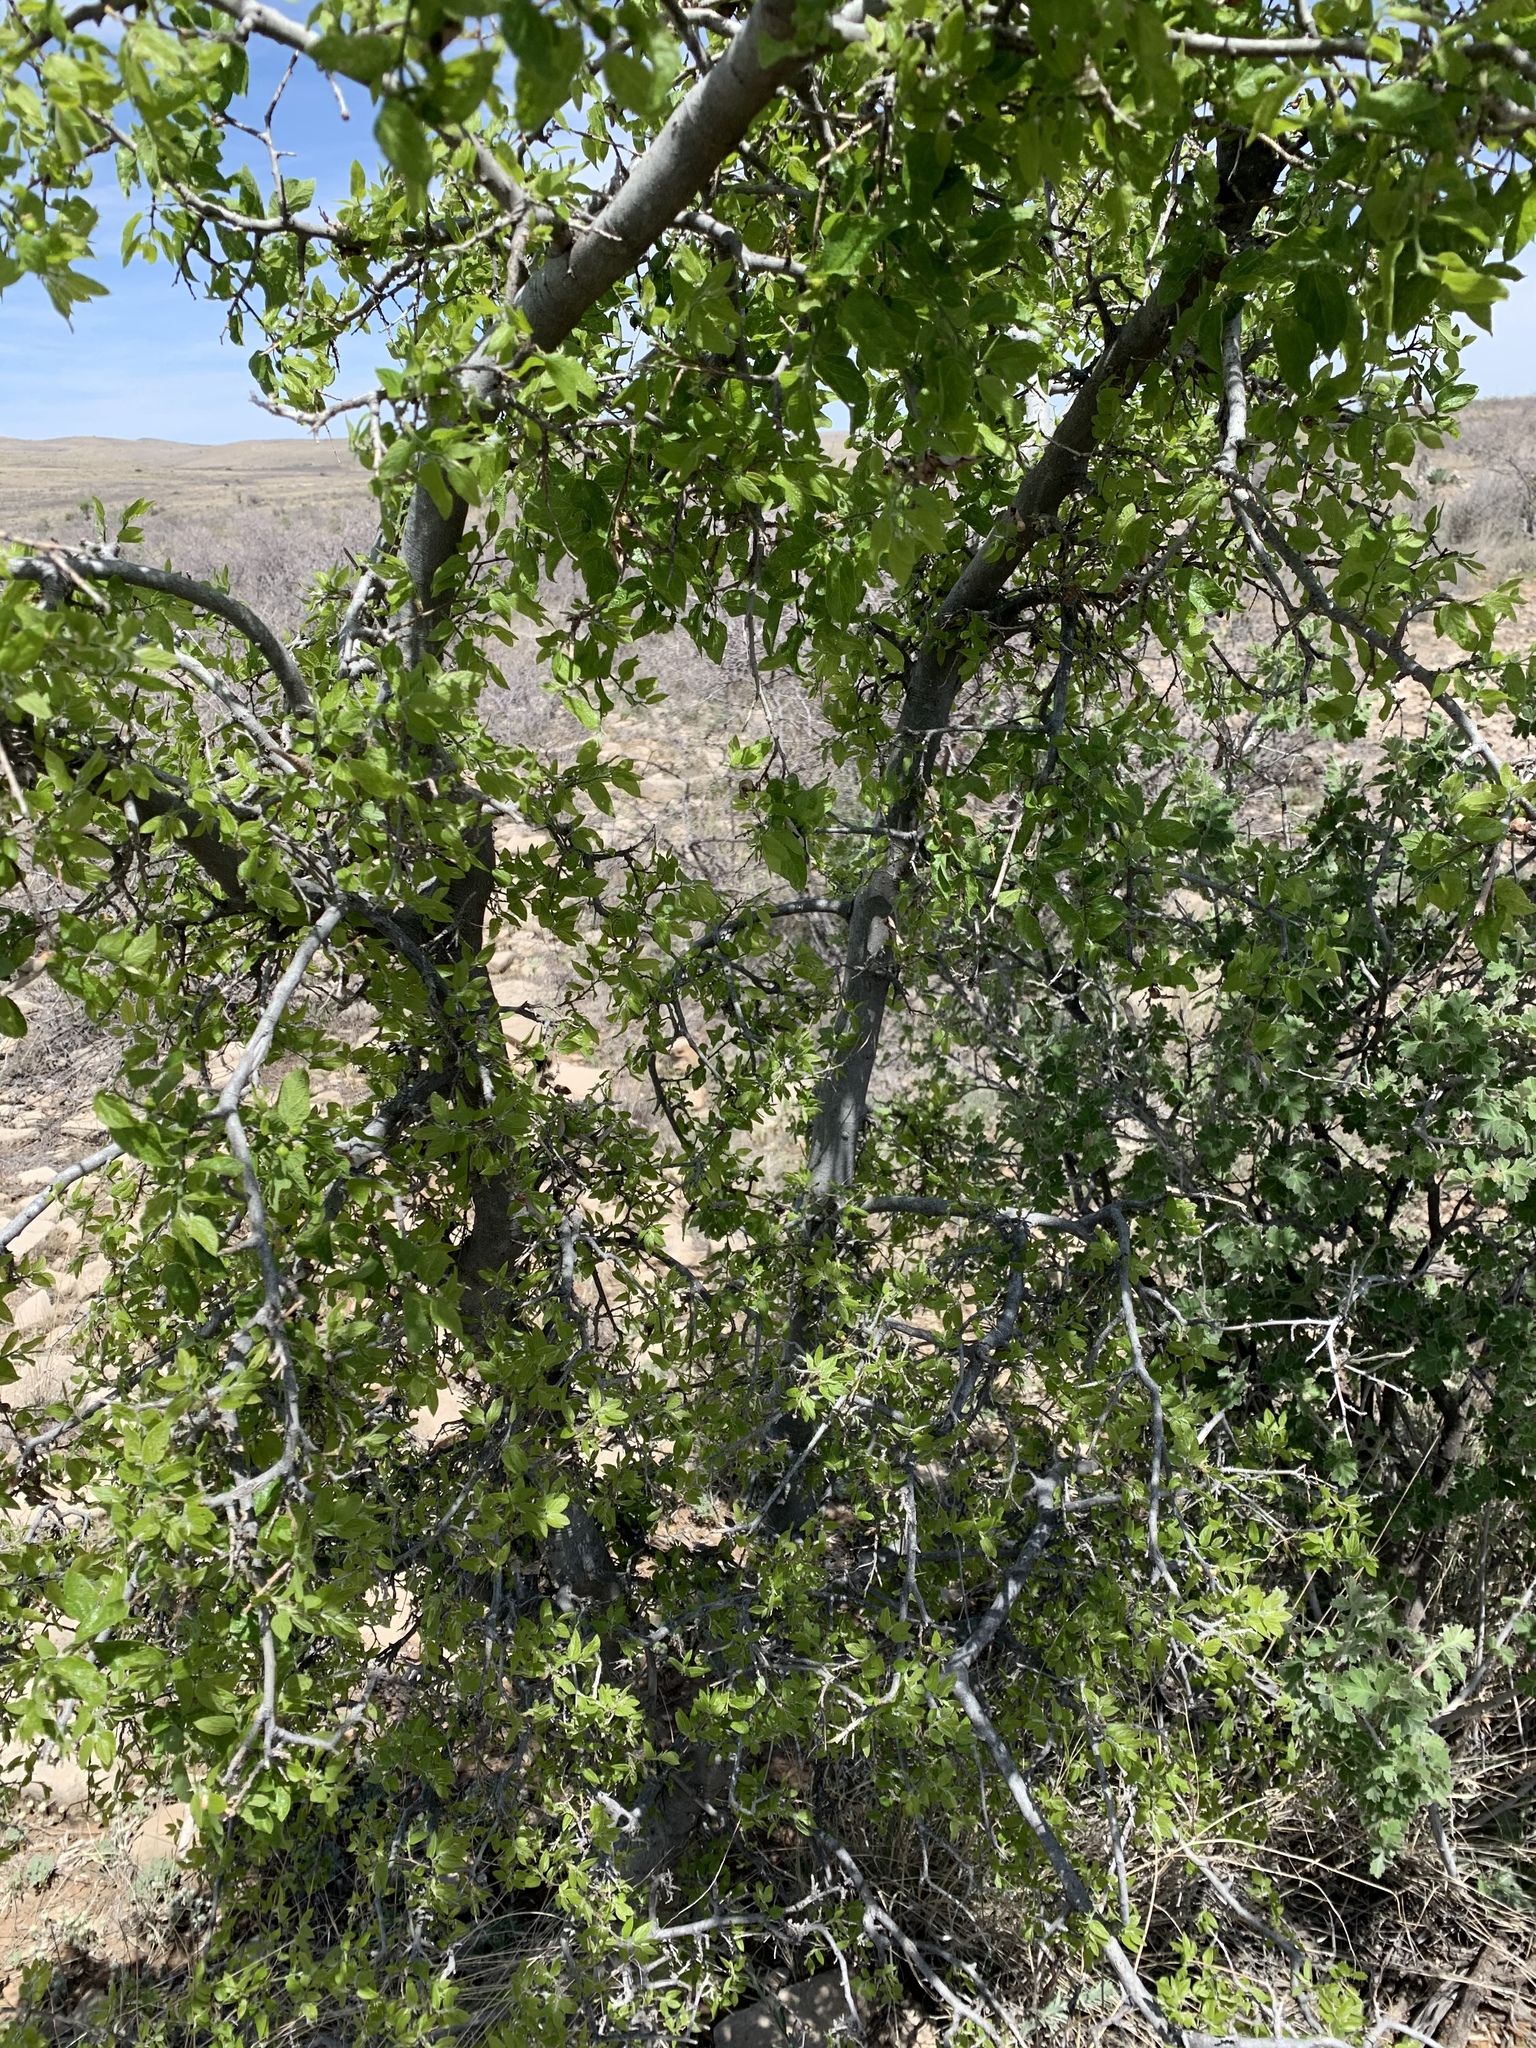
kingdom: Plantae
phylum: Tracheophyta
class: Magnoliopsida
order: Rosales
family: Cannabaceae
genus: Celtis
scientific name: Celtis reticulata
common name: Netleaf hackberry
